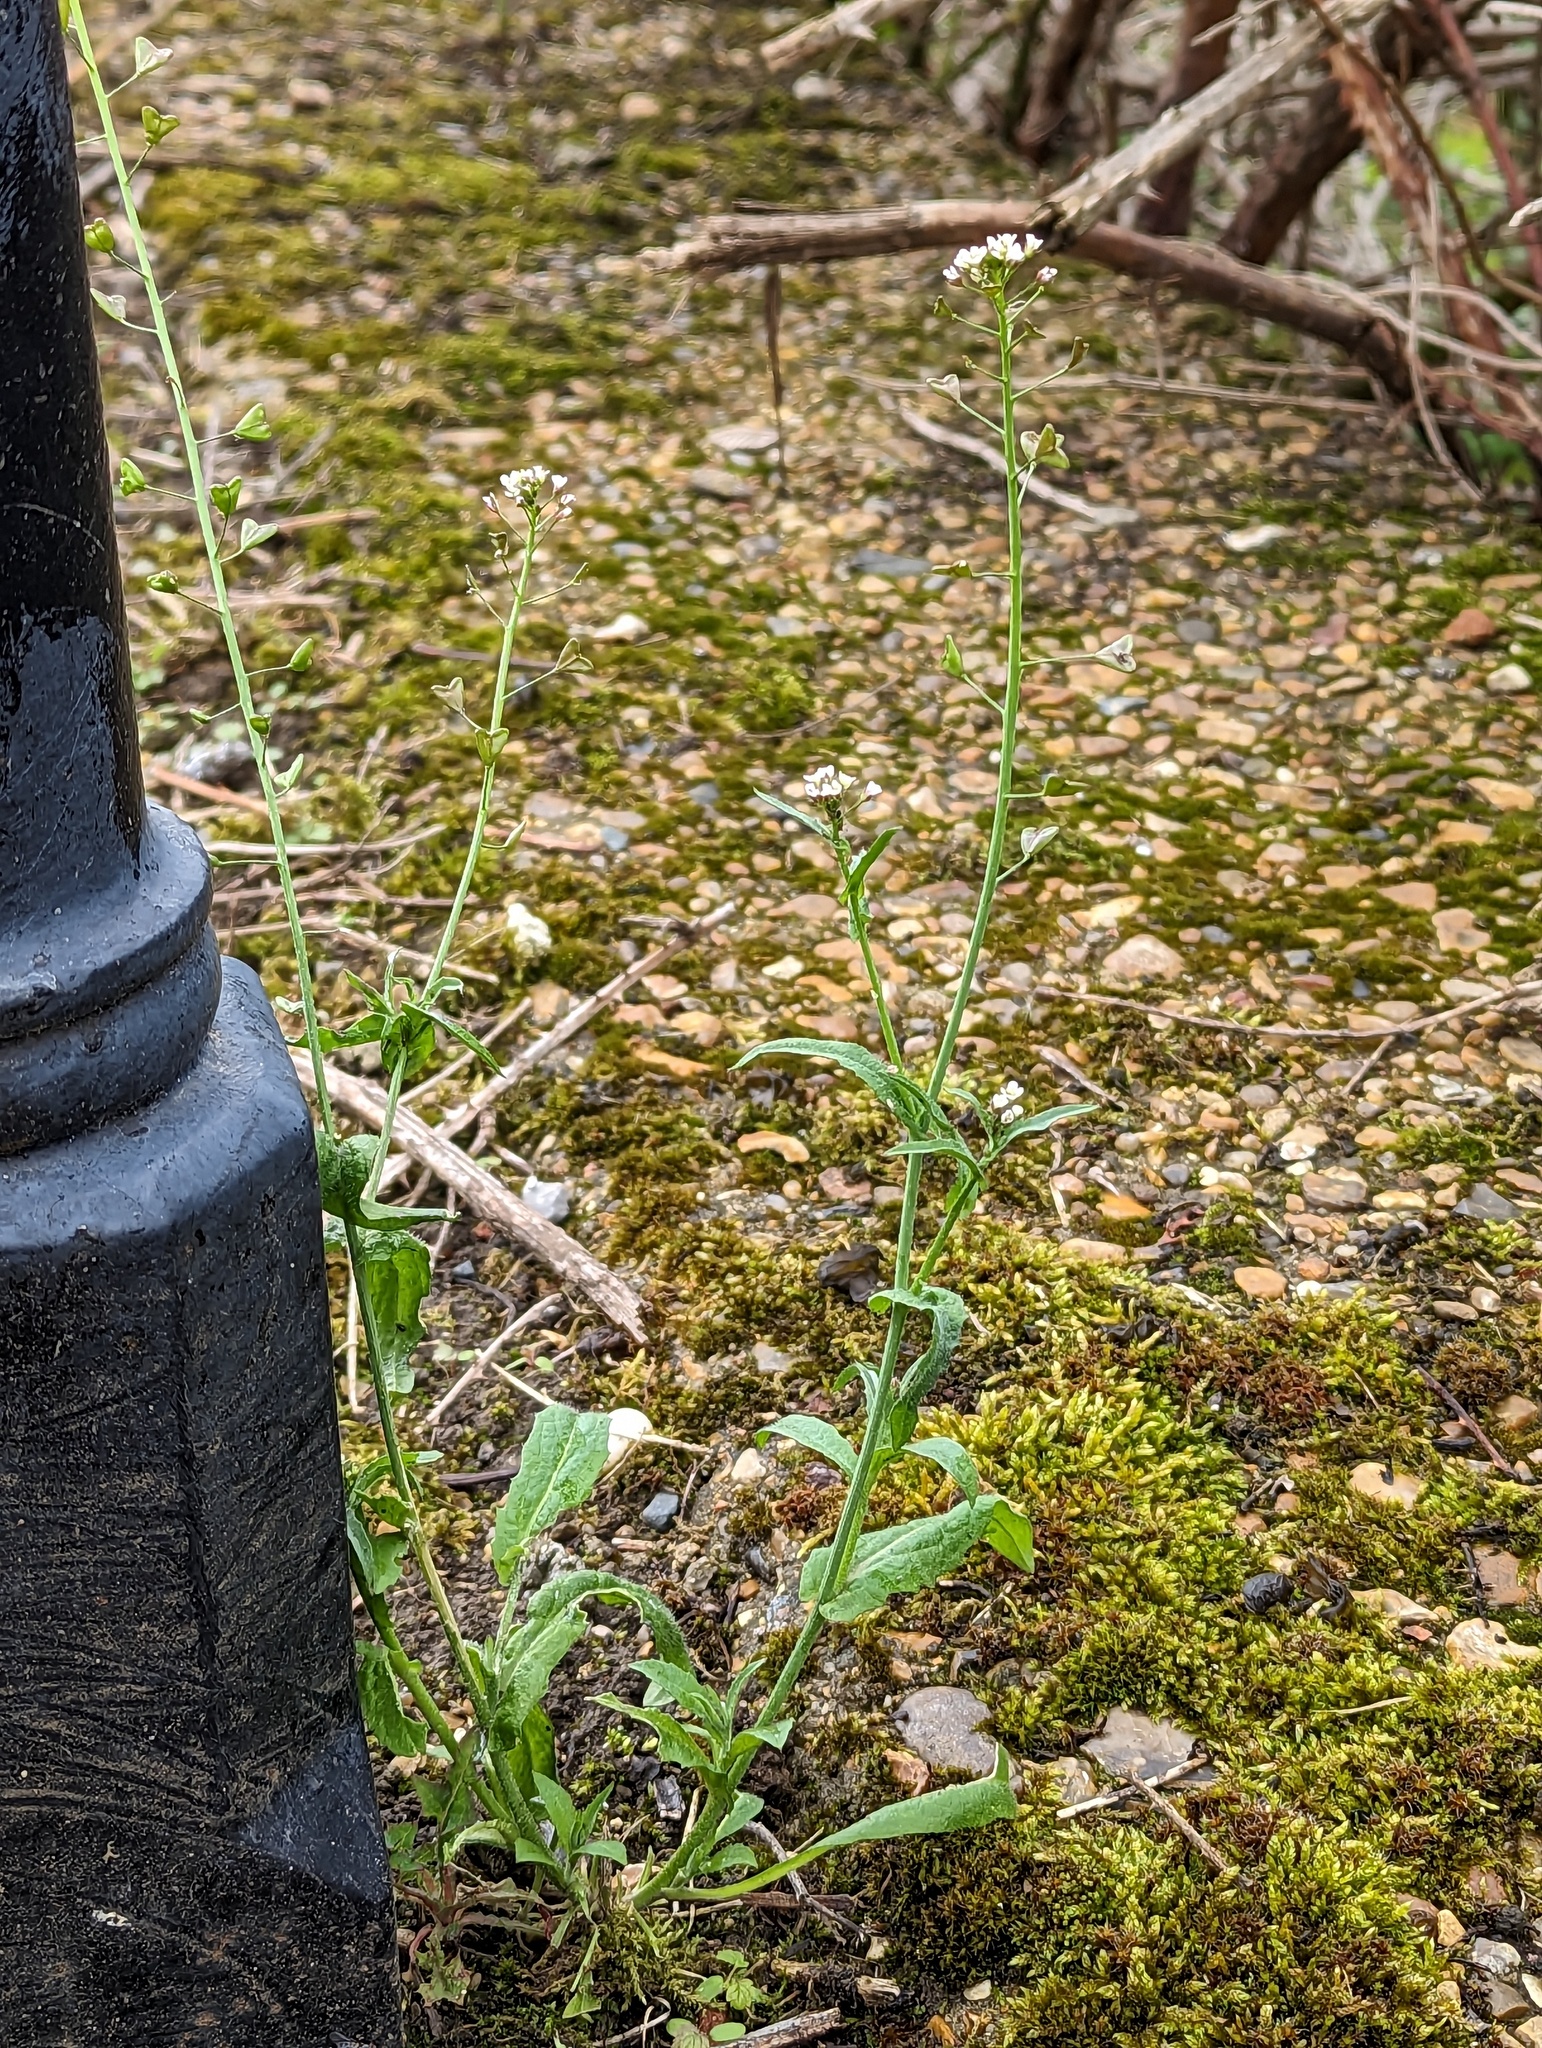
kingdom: Plantae
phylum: Tracheophyta
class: Magnoliopsida
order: Brassicales
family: Brassicaceae
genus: Capsella
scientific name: Capsella bursa-pastoris
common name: Shepherd's purse
